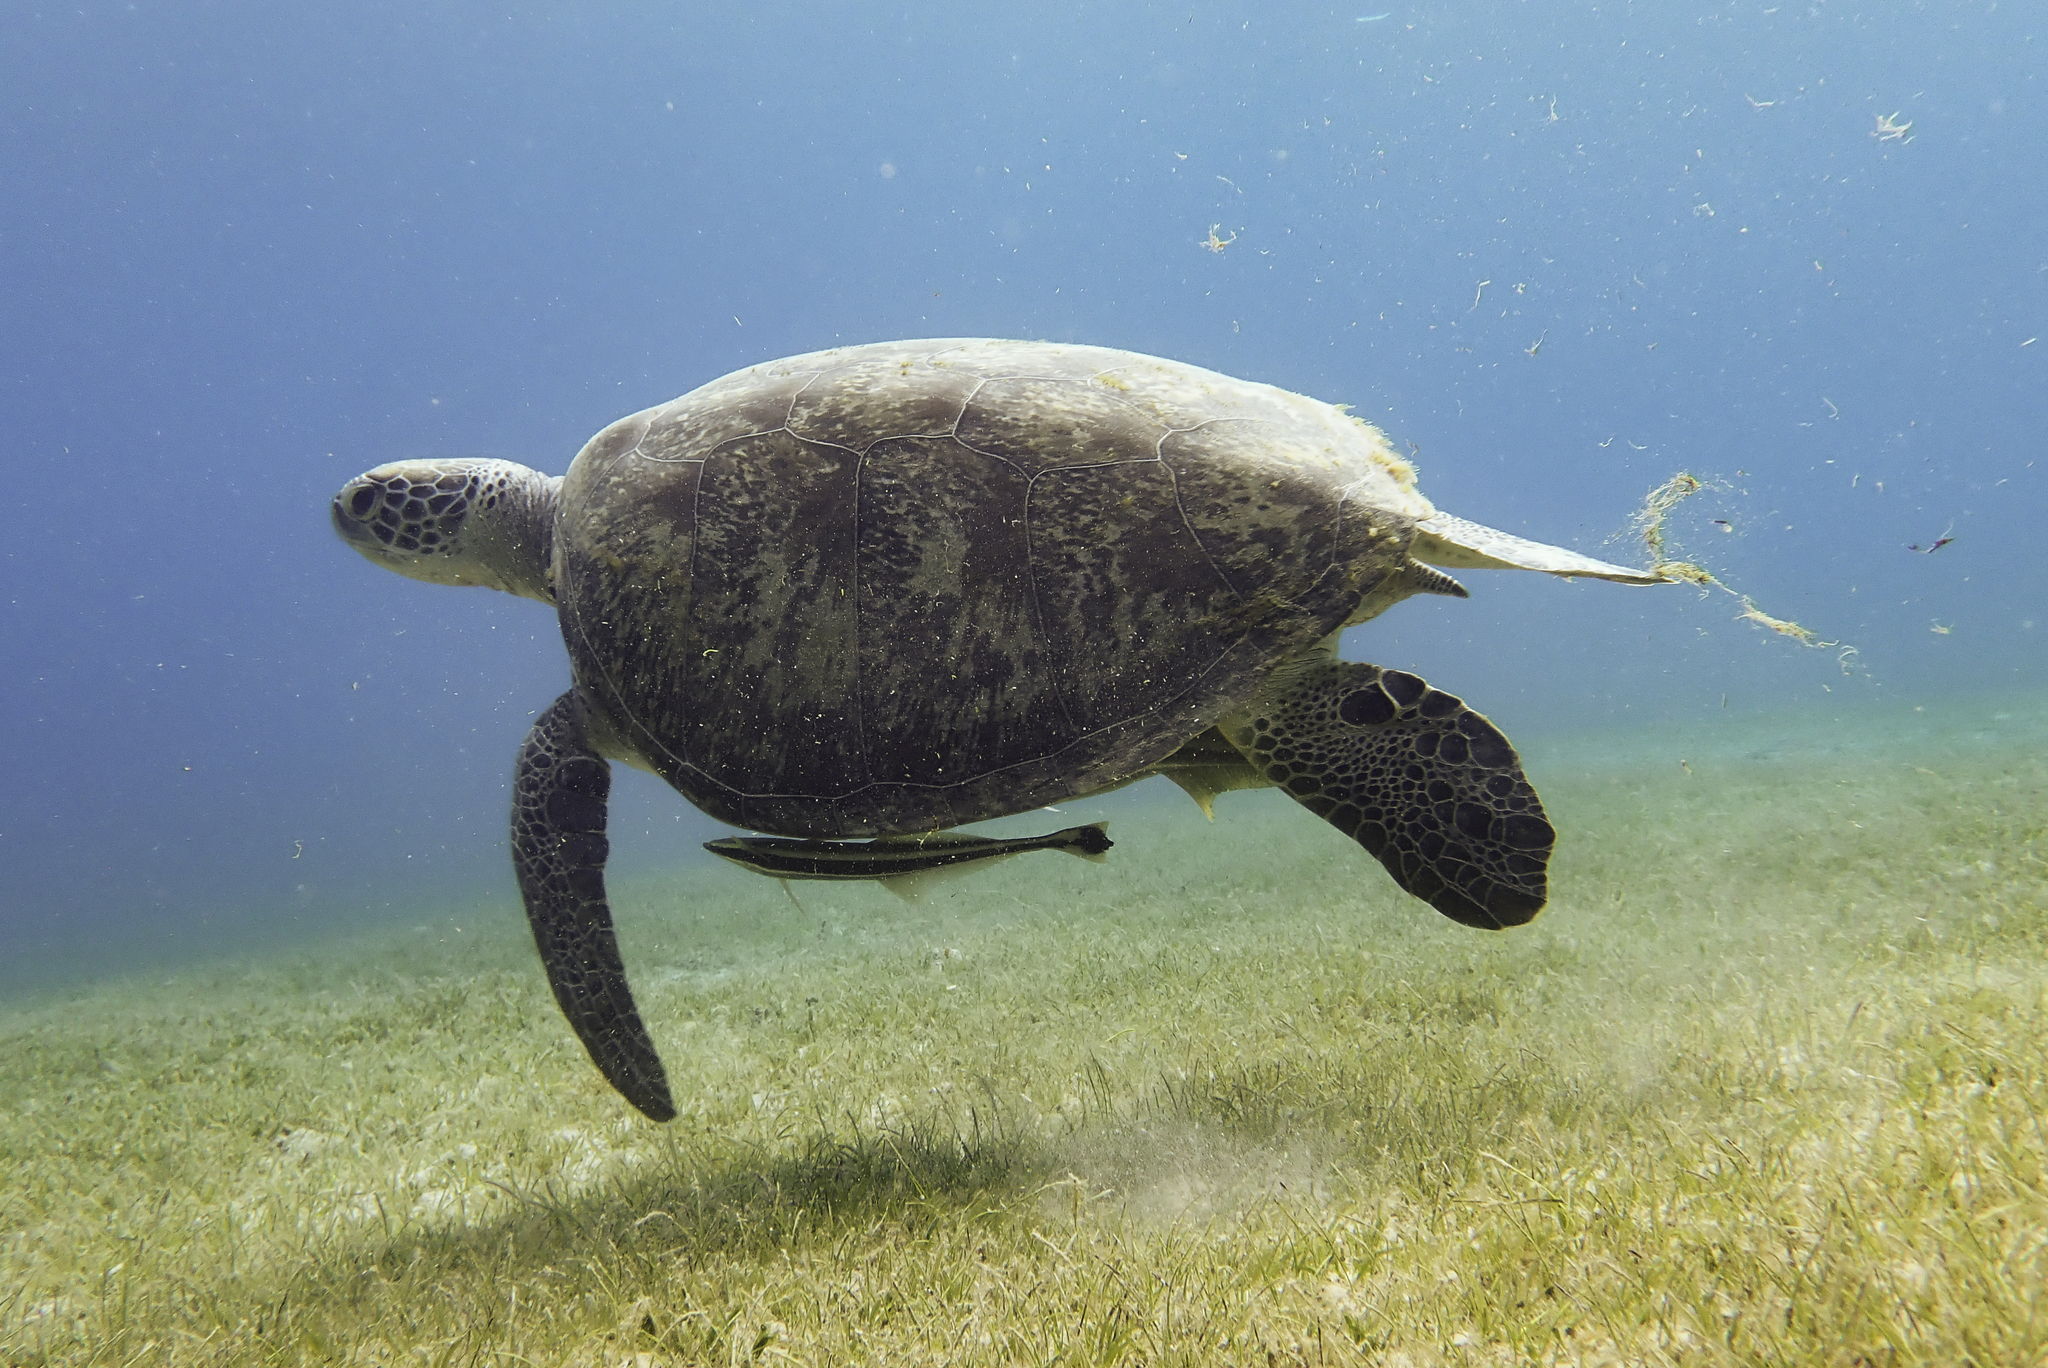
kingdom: Animalia
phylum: Chordata
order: Perciformes
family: Echeneidae
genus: Echeneis
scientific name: Echeneis naucrates
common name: Sharksucker
